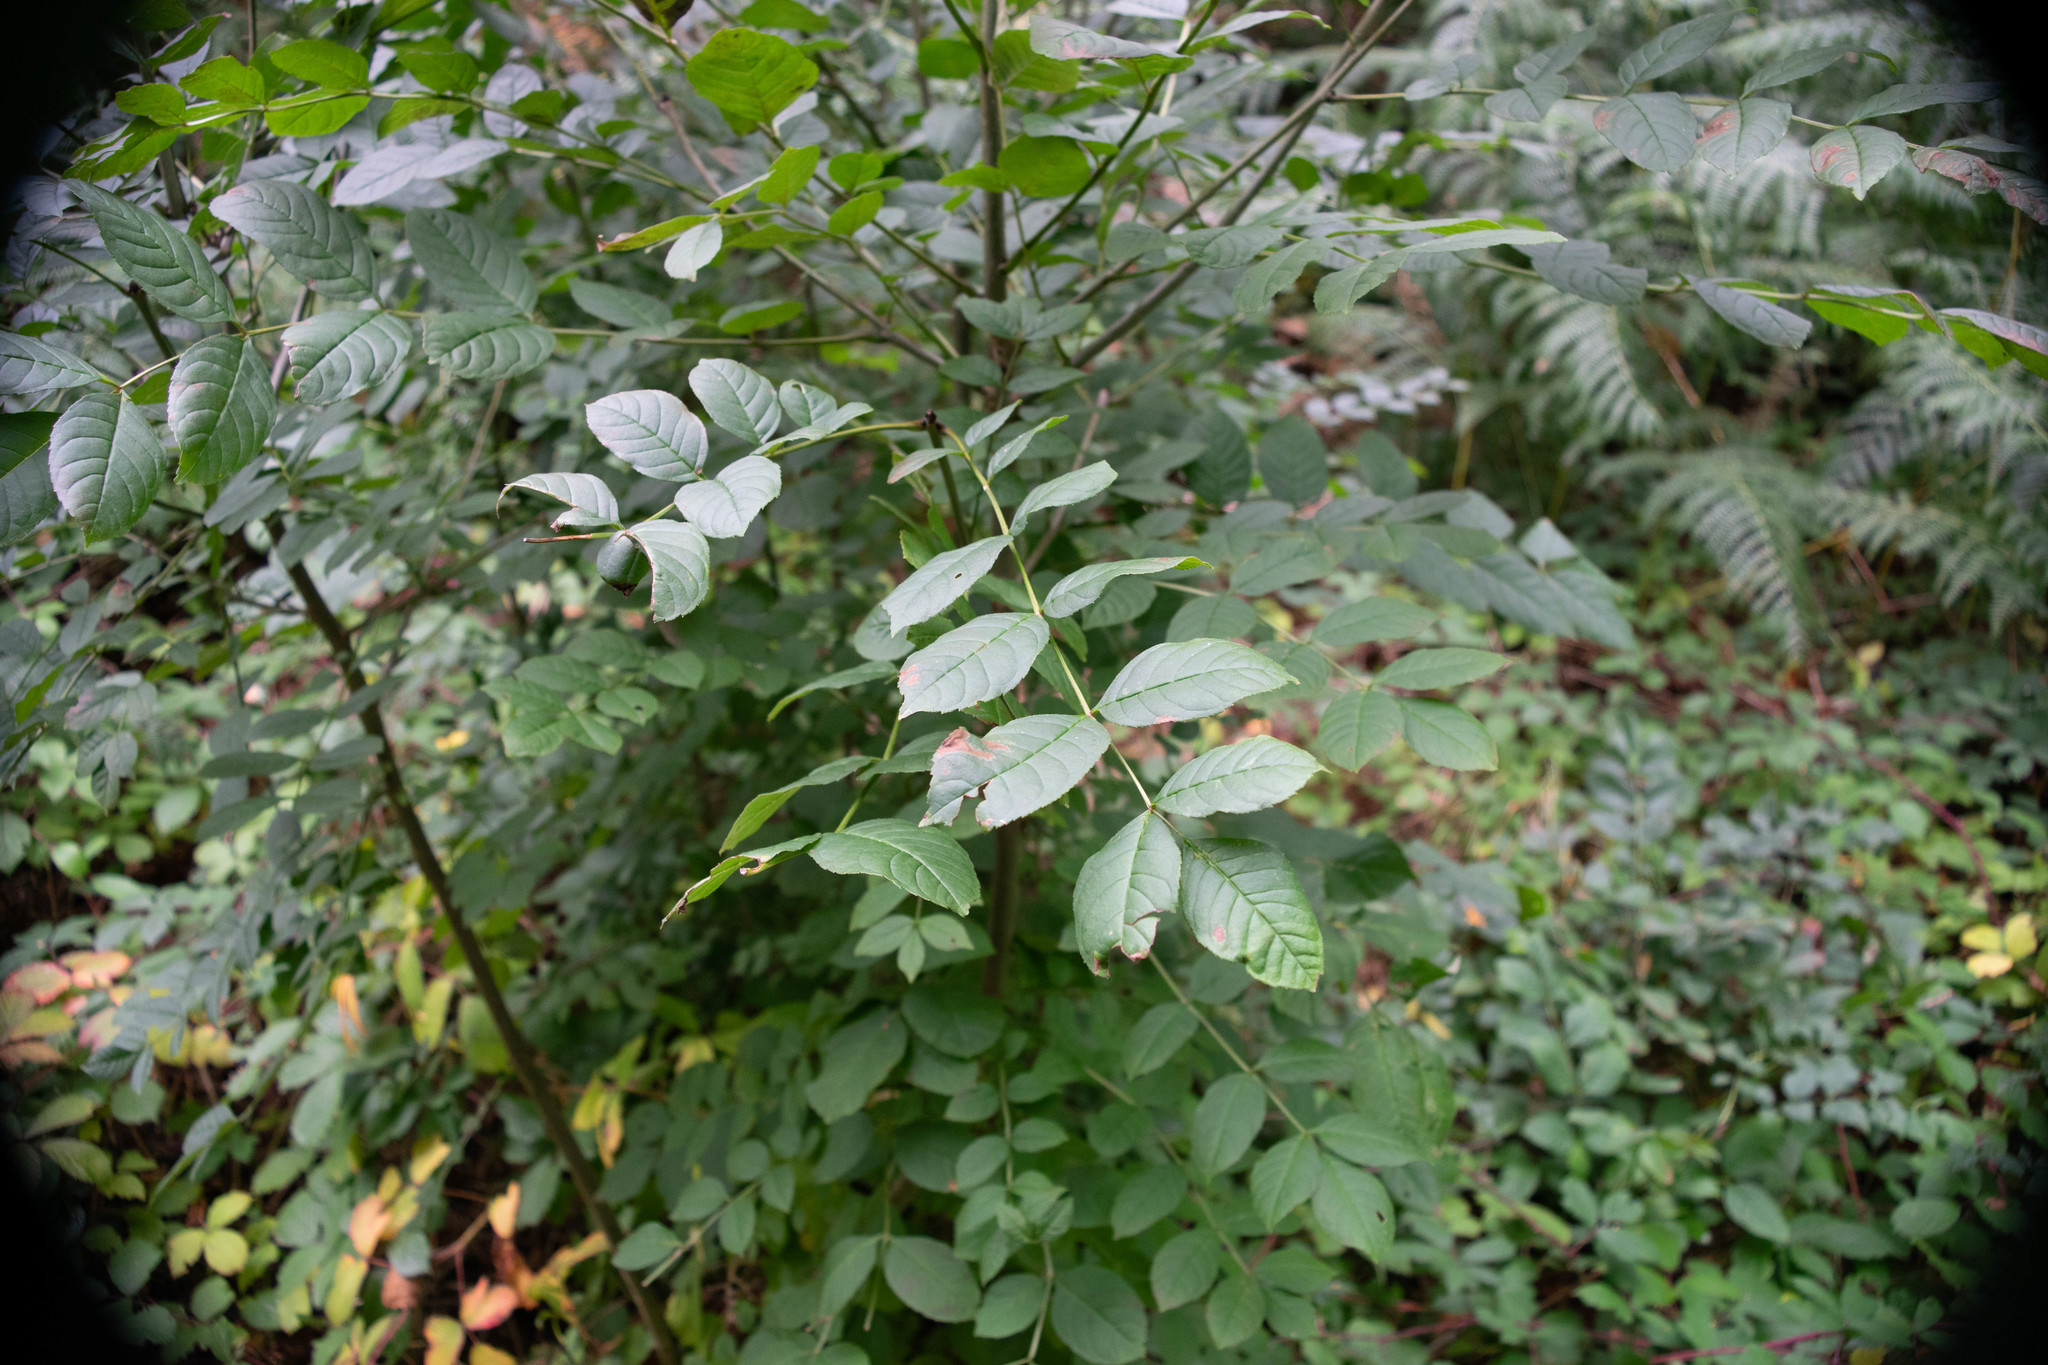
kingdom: Plantae
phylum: Tracheophyta
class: Magnoliopsida
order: Lamiales
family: Oleaceae
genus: Fraxinus
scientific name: Fraxinus excelsior
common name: European ash
